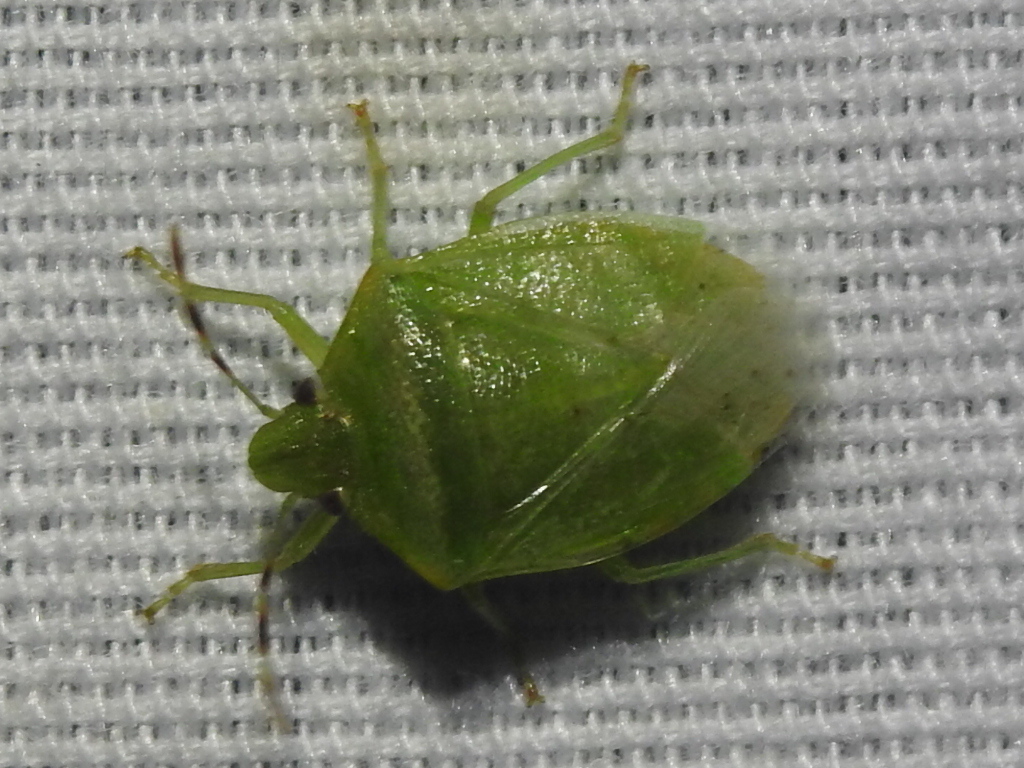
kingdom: Animalia
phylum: Arthropoda
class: Insecta
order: Hemiptera
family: Pentatomidae
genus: Thyanta
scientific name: Thyanta maculata
